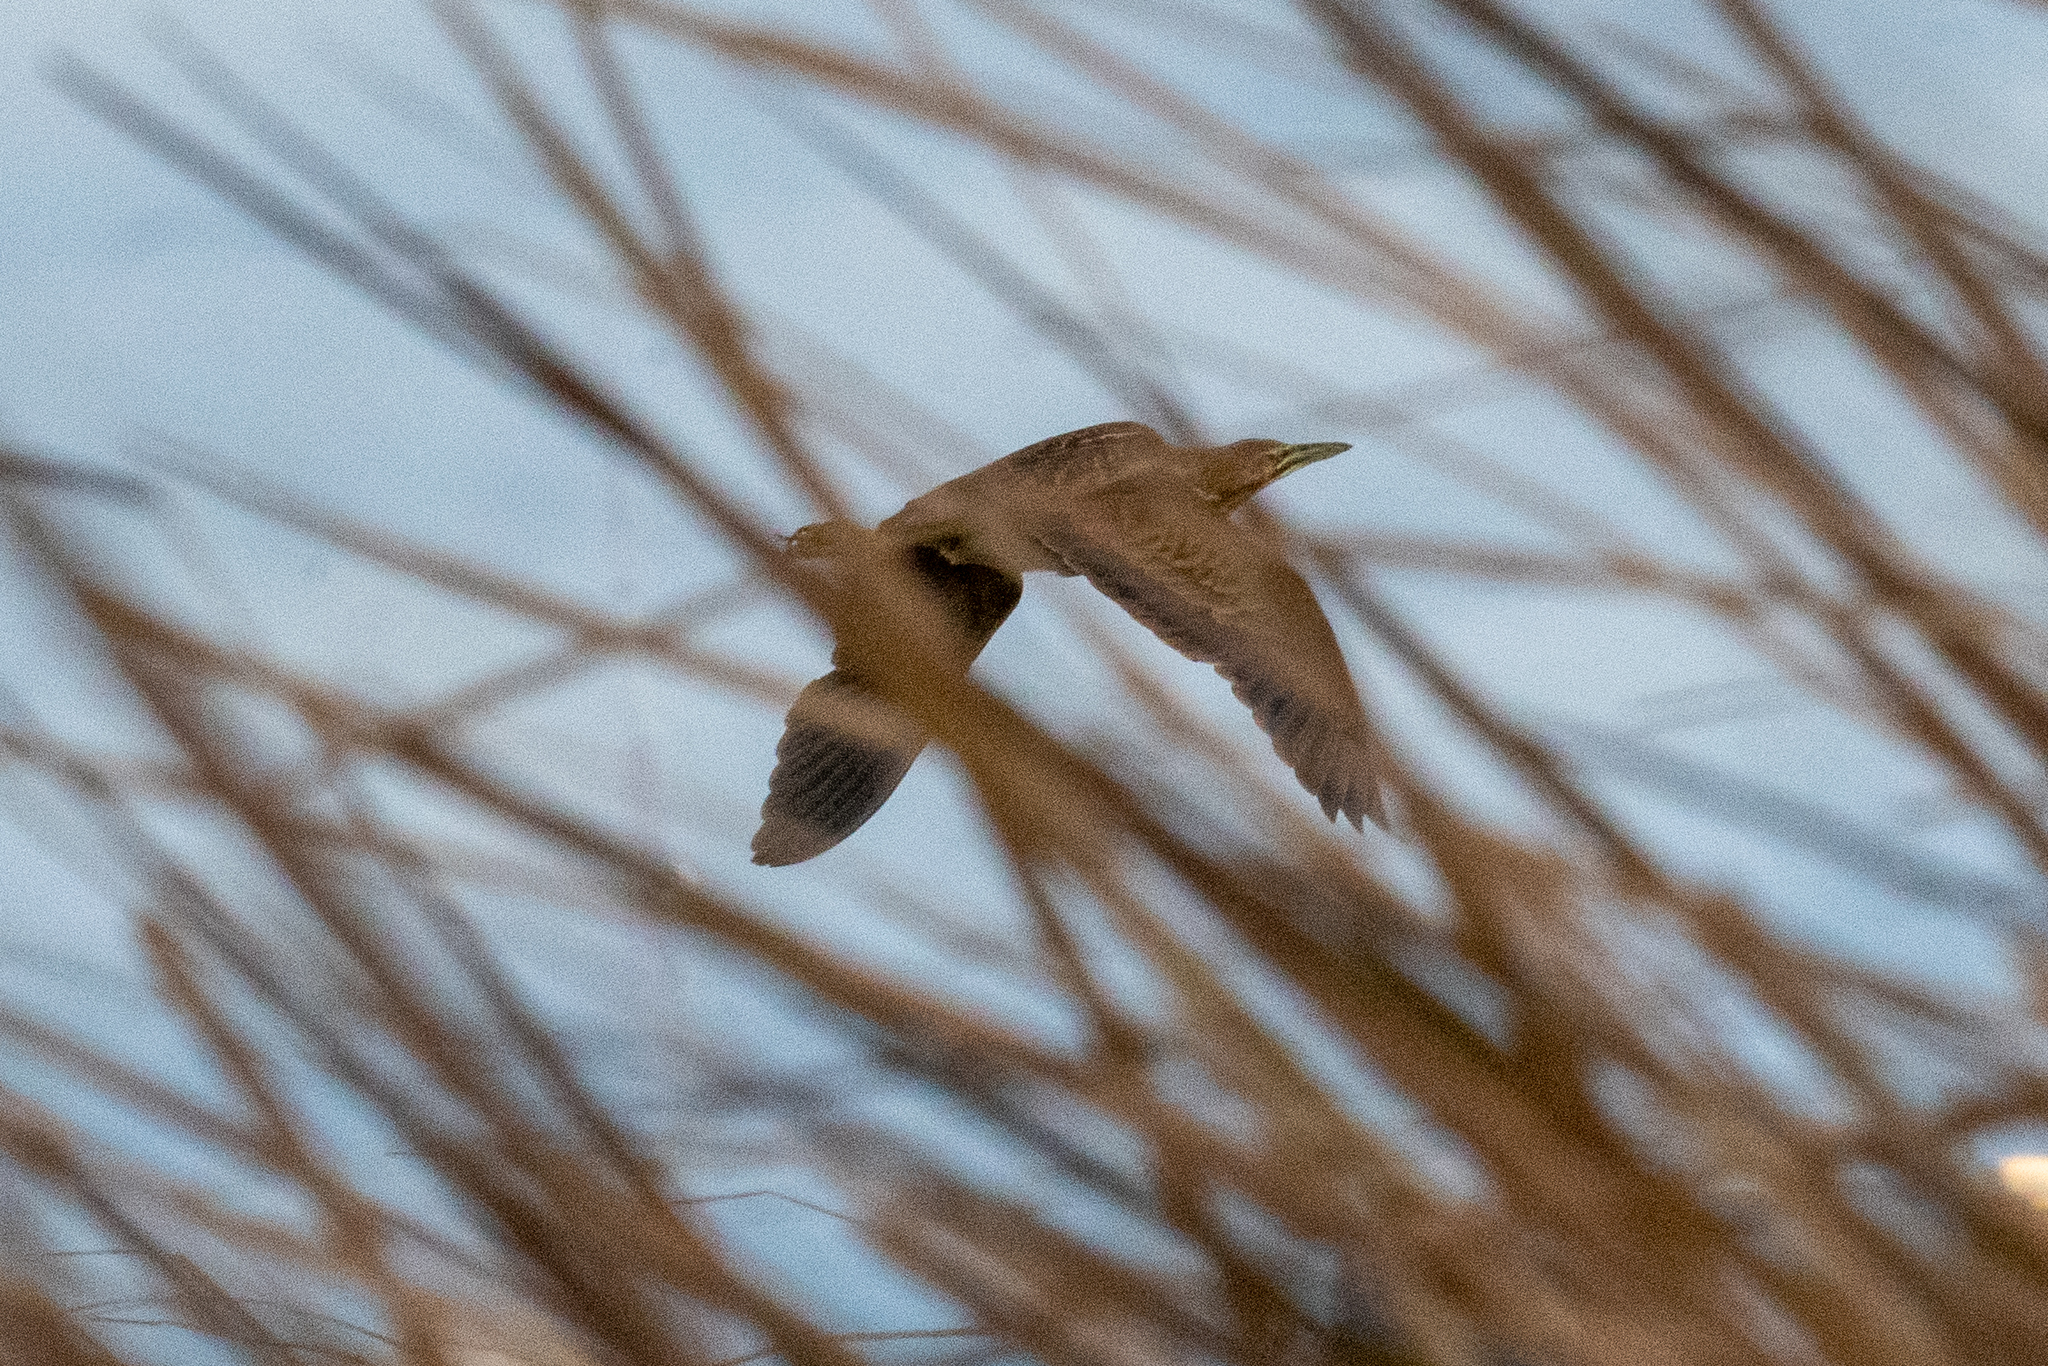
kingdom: Animalia
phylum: Chordata
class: Aves
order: Pelecaniformes
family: Ardeidae
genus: Botaurus
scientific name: Botaurus lentiginosus
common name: American bittern
